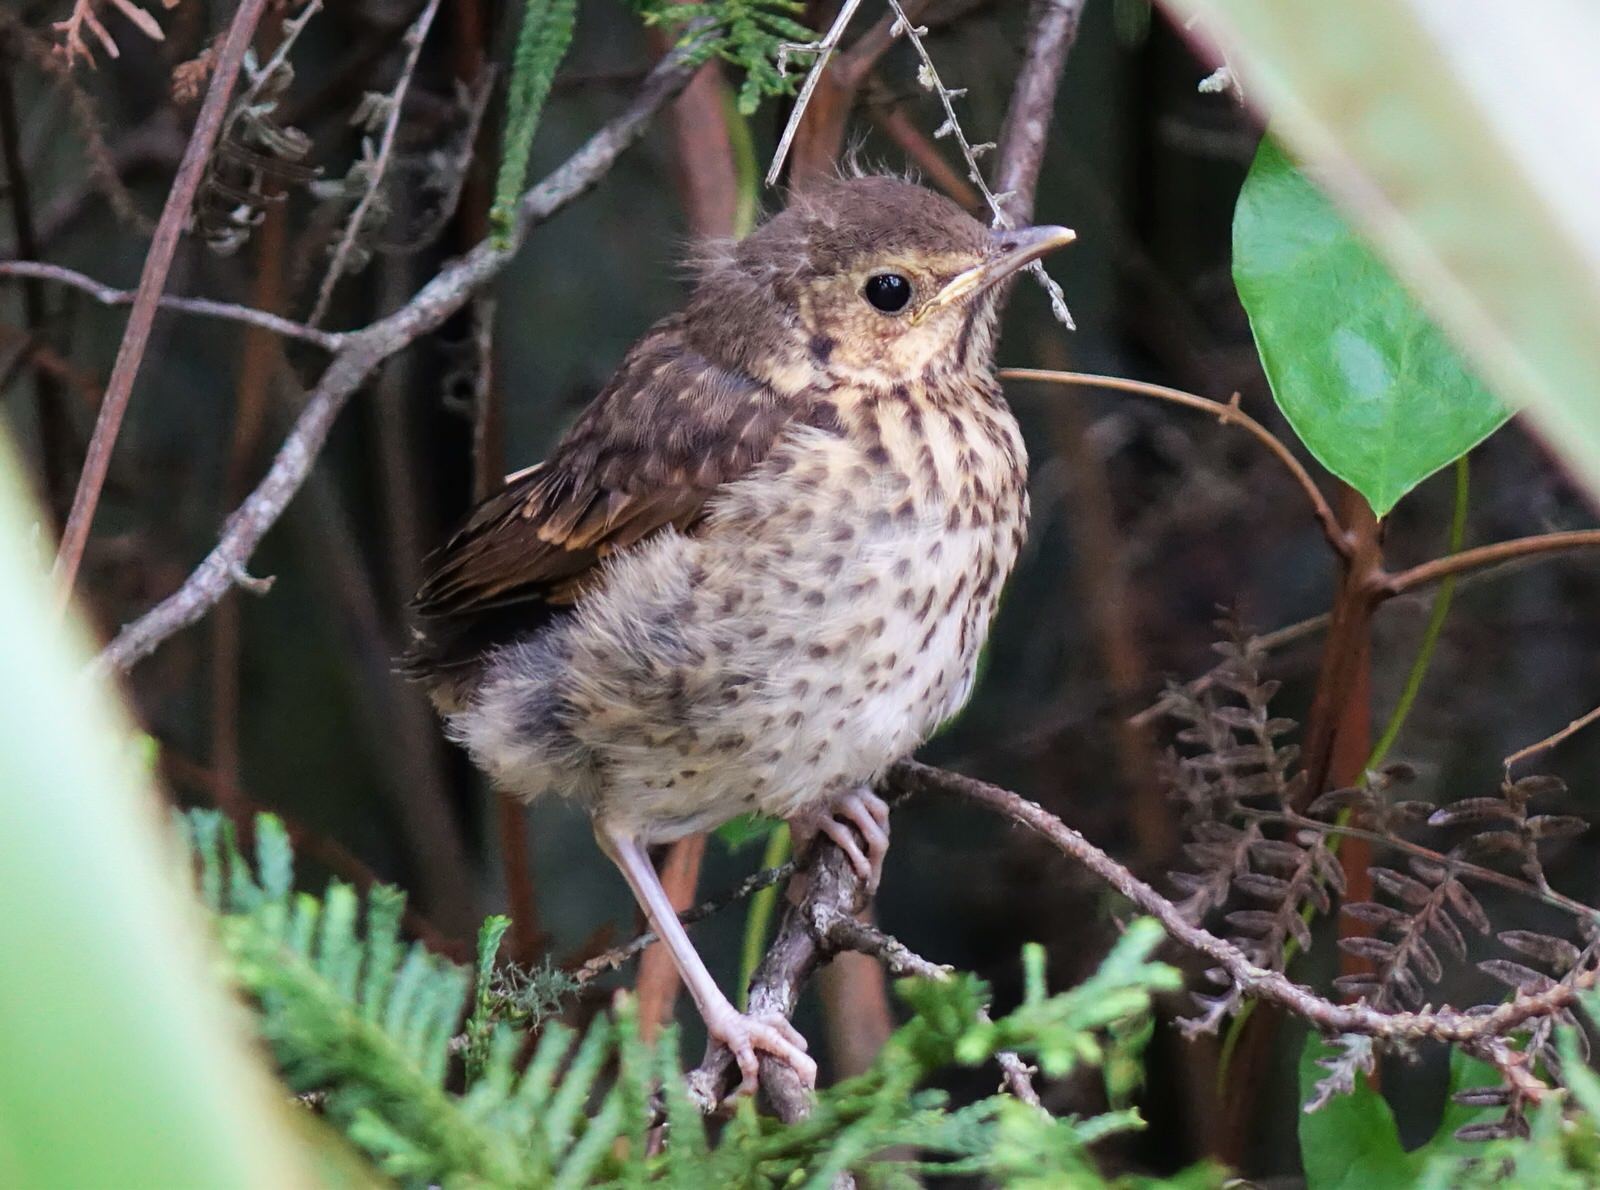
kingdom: Animalia
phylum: Chordata
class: Aves
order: Passeriformes
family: Turdidae
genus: Turdus
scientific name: Turdus philomelos
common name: Song thrush
